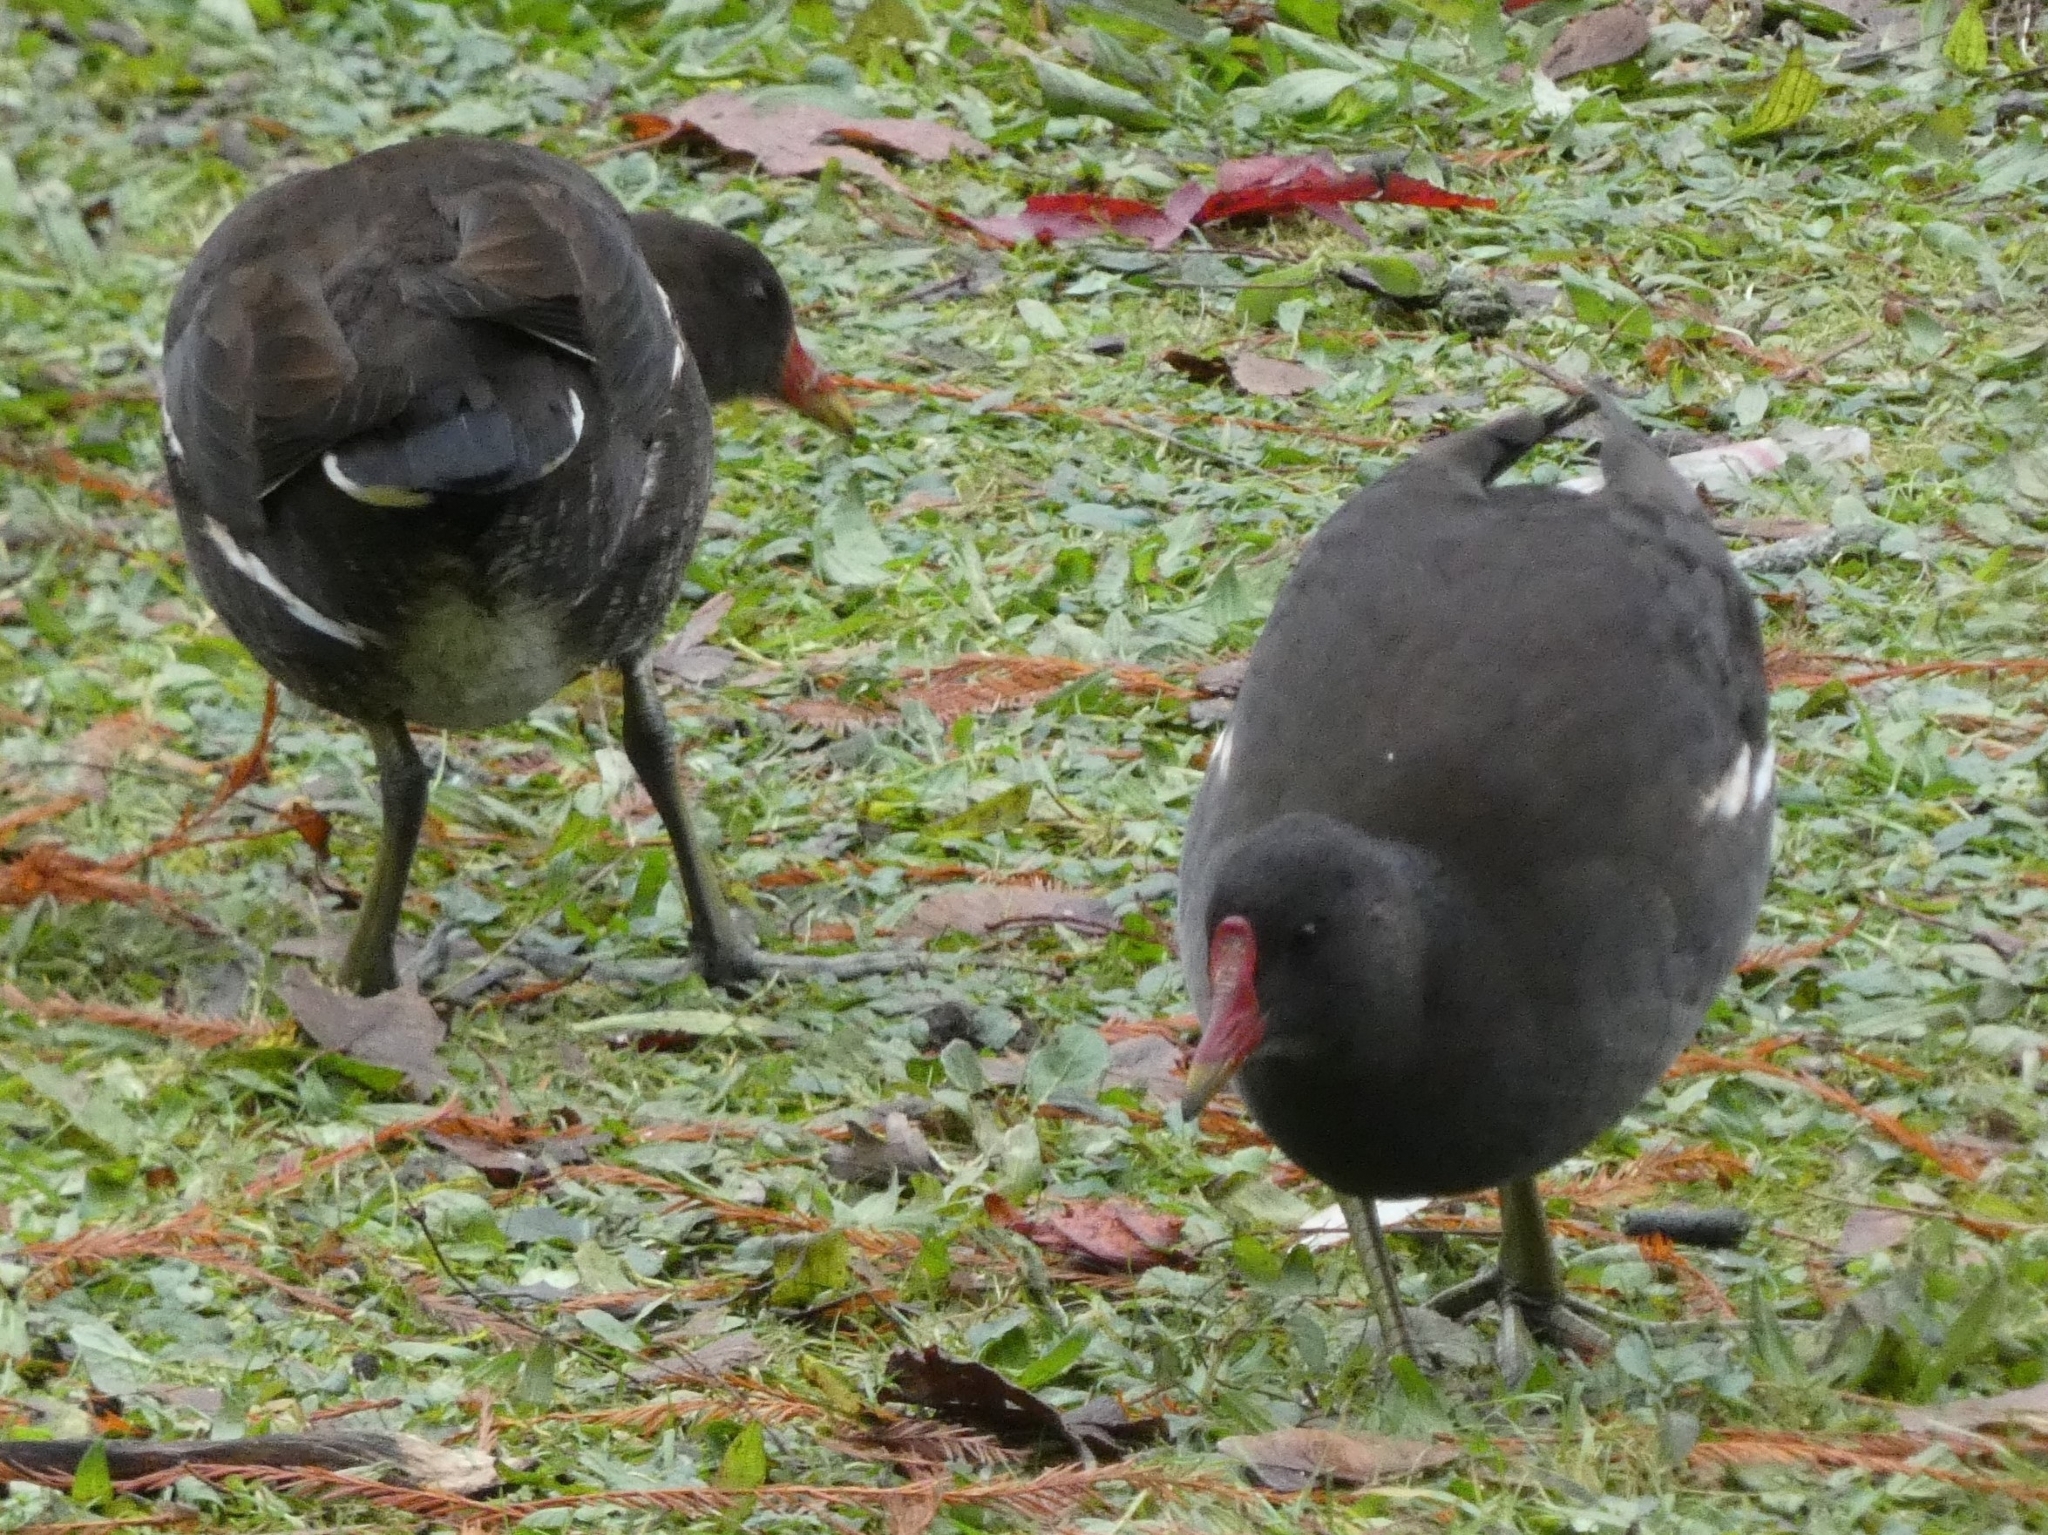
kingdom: Animalia
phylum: Chordata
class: Aves
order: Gruiformes
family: Rallidae
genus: Gallinula
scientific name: Gallinula chloropus
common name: Common moorhen
